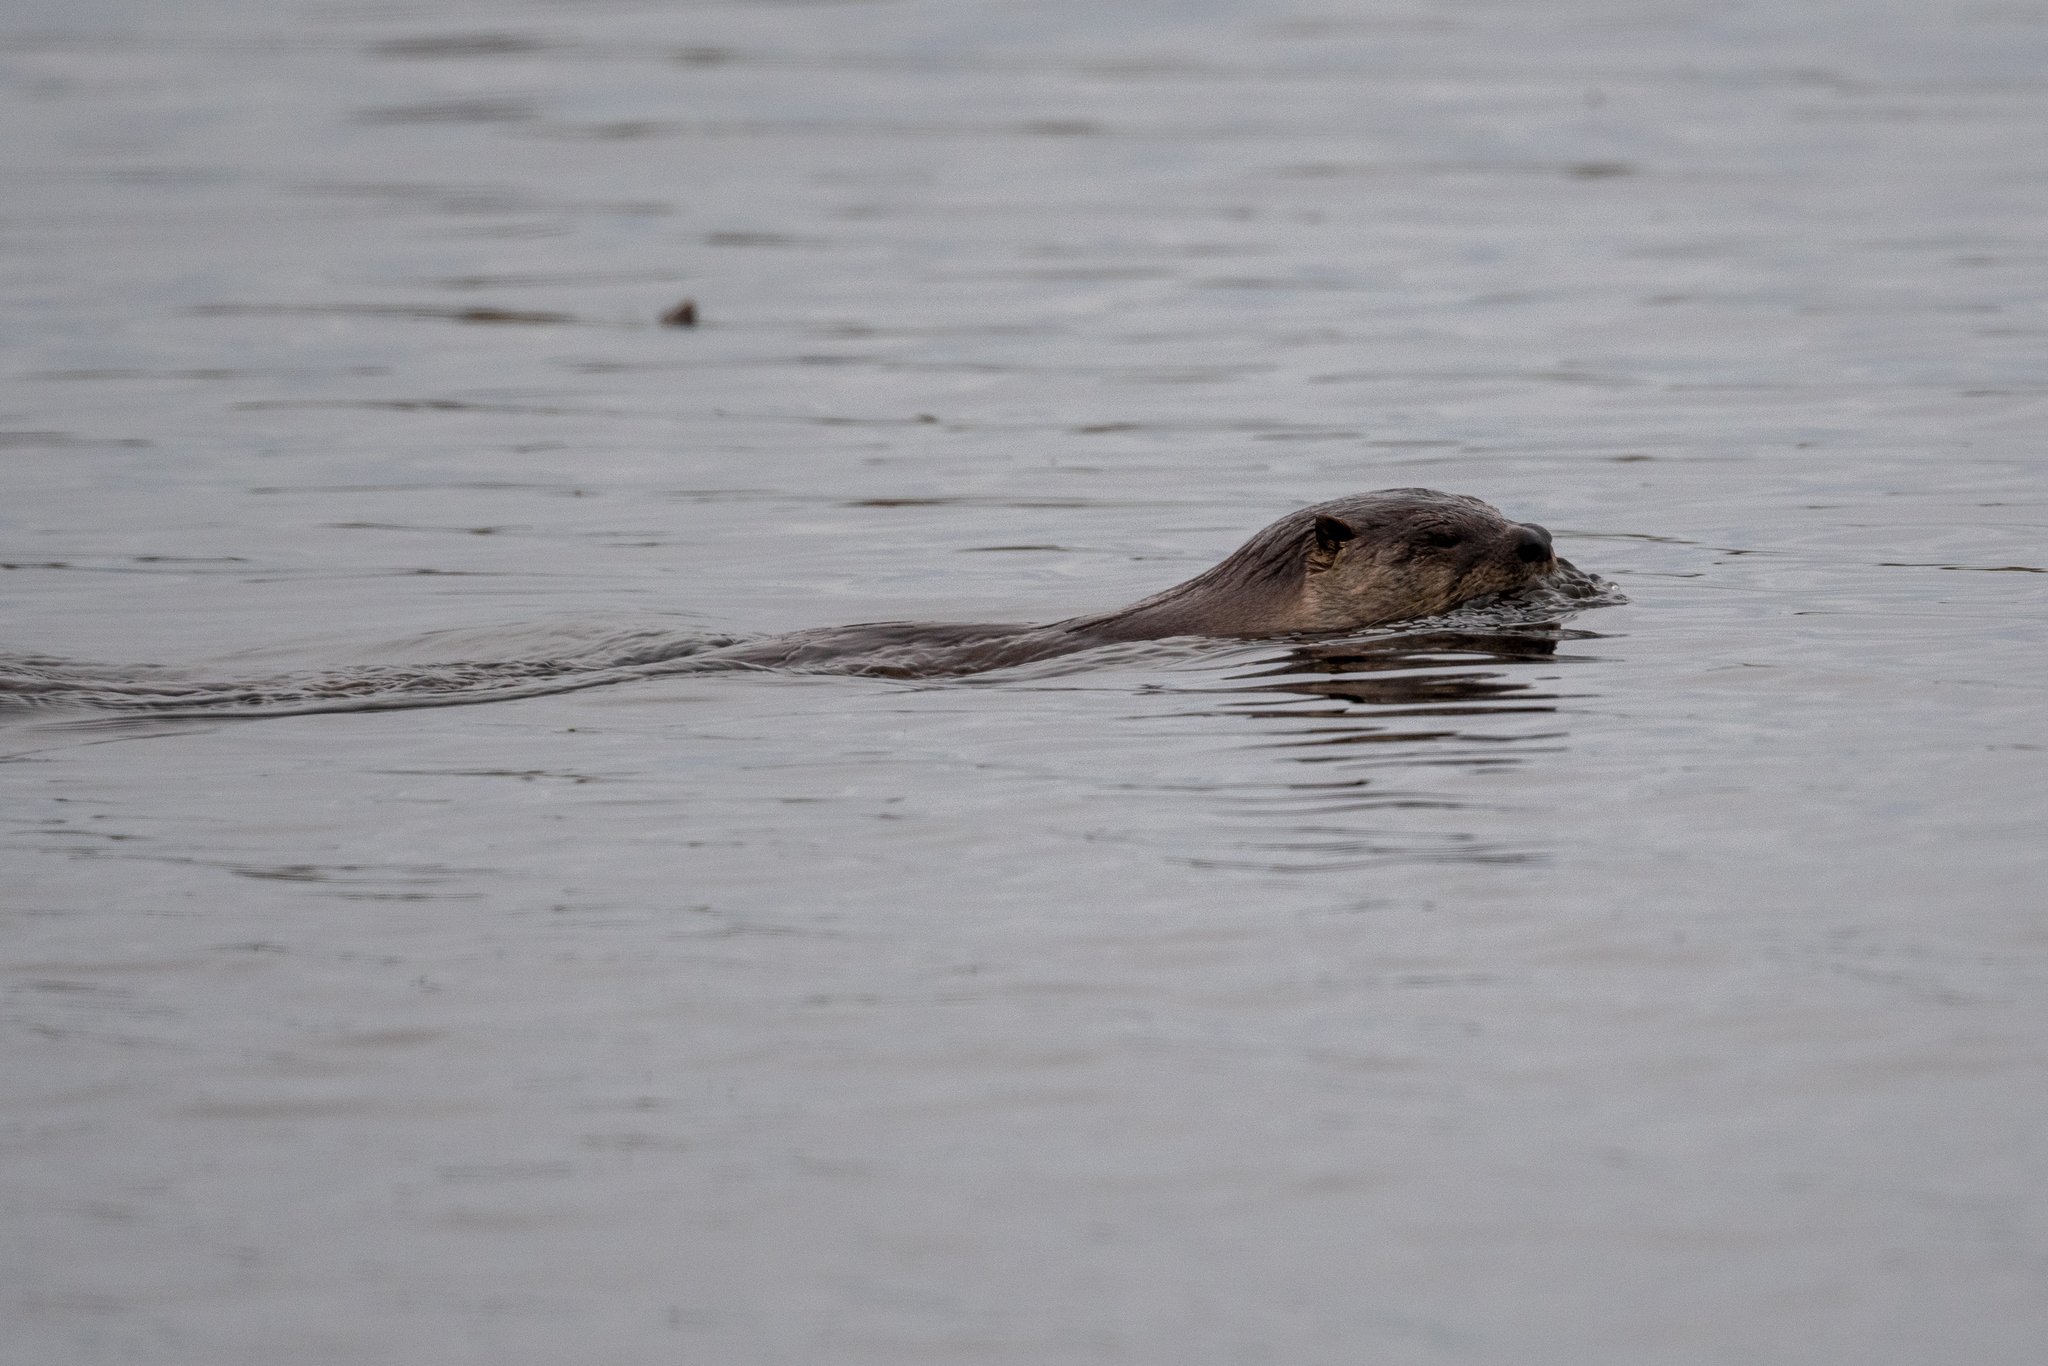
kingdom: Animalia
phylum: Chordata
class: Mammalia
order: Carnivora
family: Mustelidae
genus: Lontra
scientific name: Lontra canadensis
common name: North american river otter
